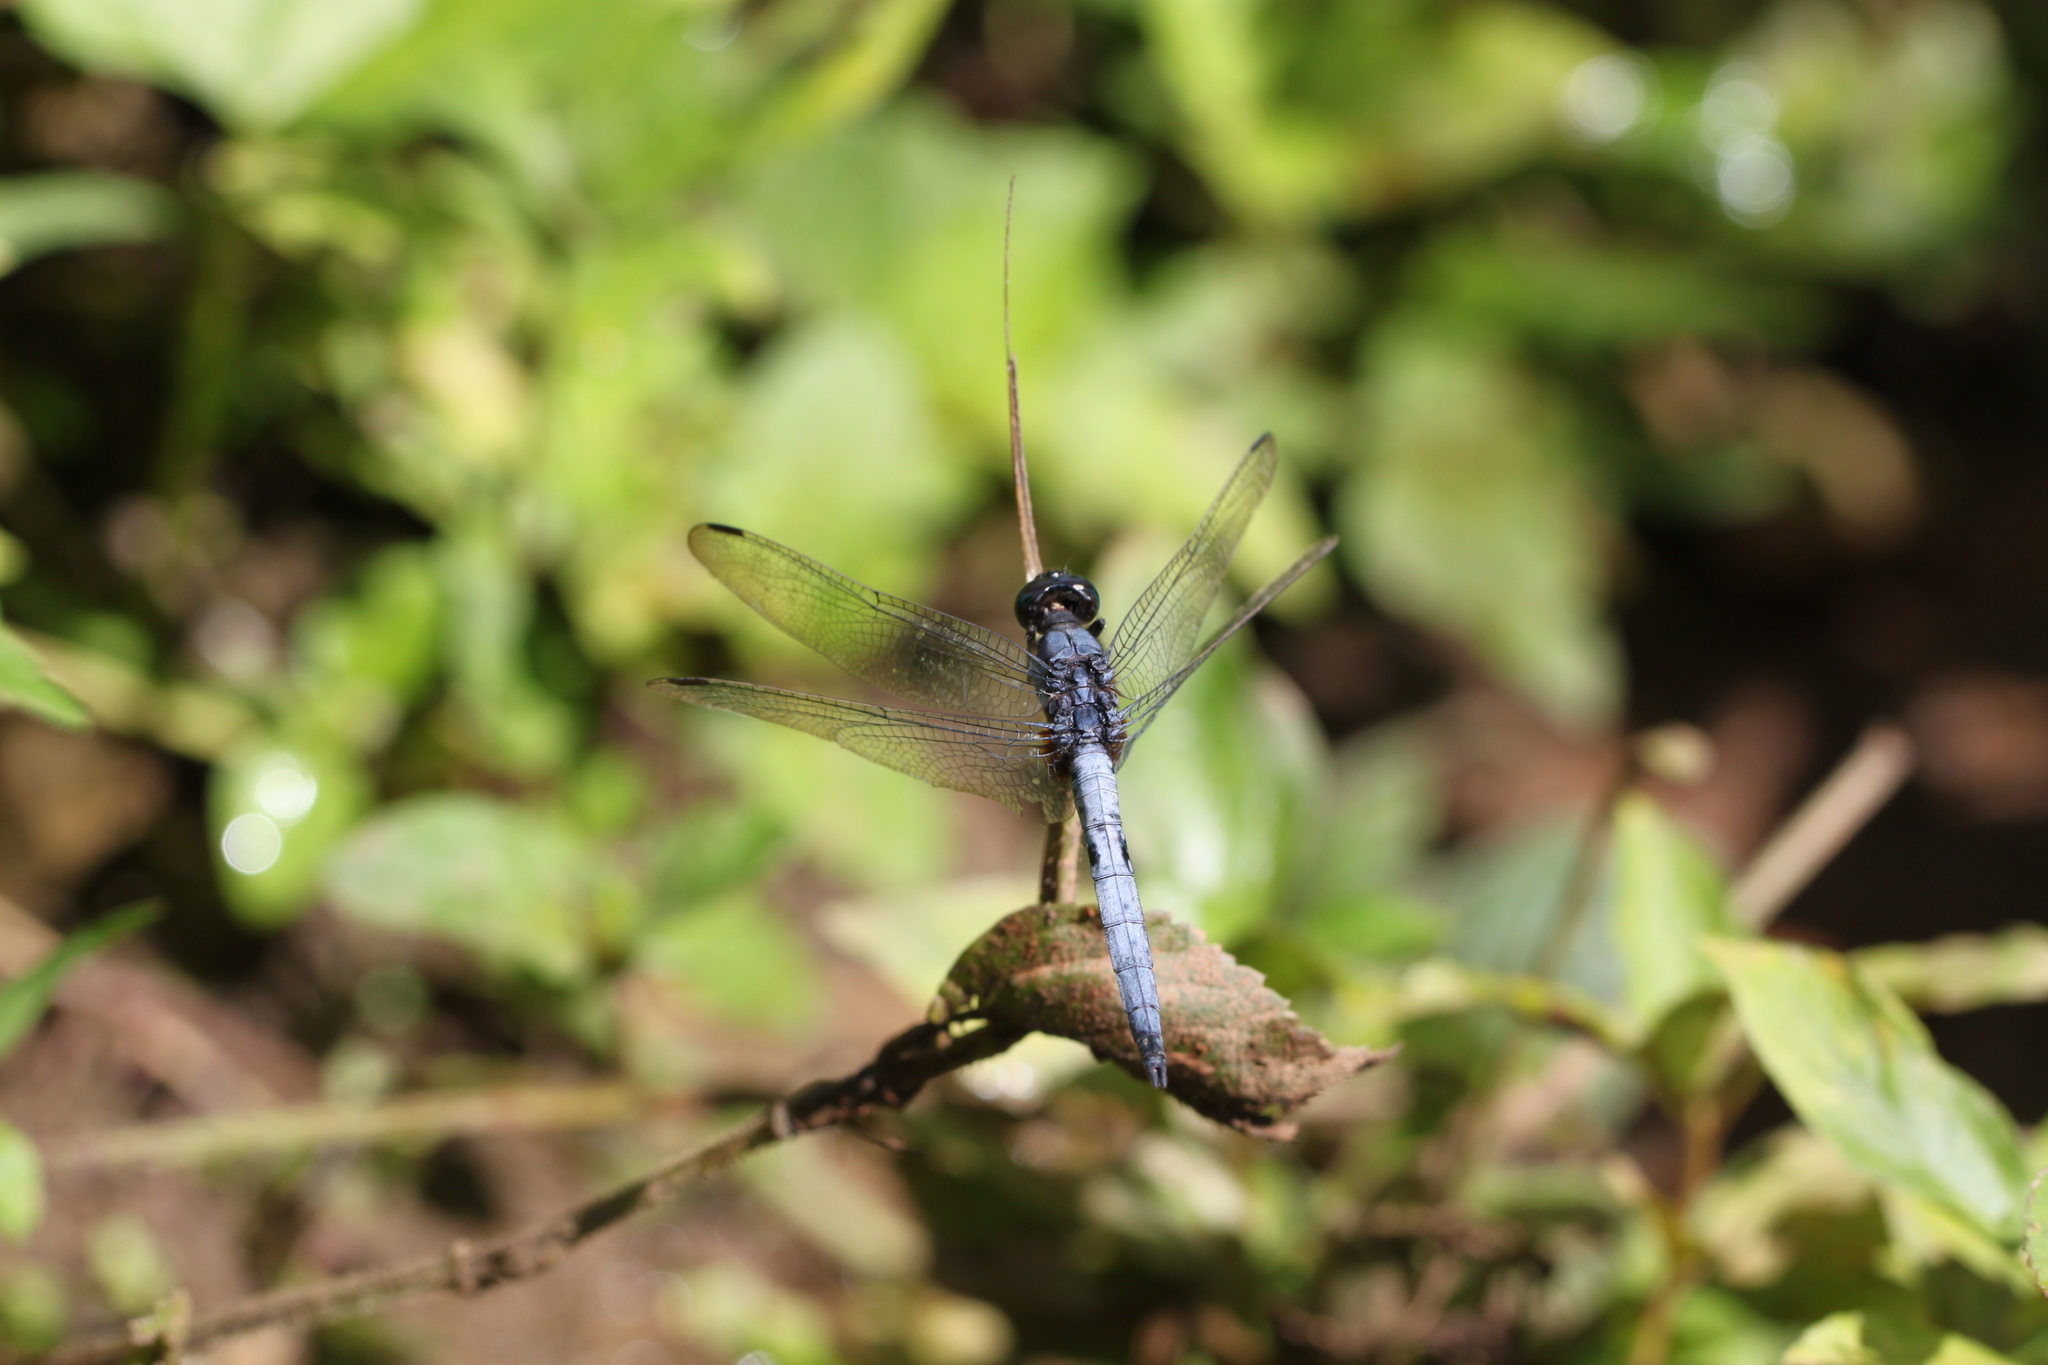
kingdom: Animalia
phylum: Arthropoda
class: Insecta
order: Odonata
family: Libellulidae
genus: Orthetrum
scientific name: Orthetrum glaucum
